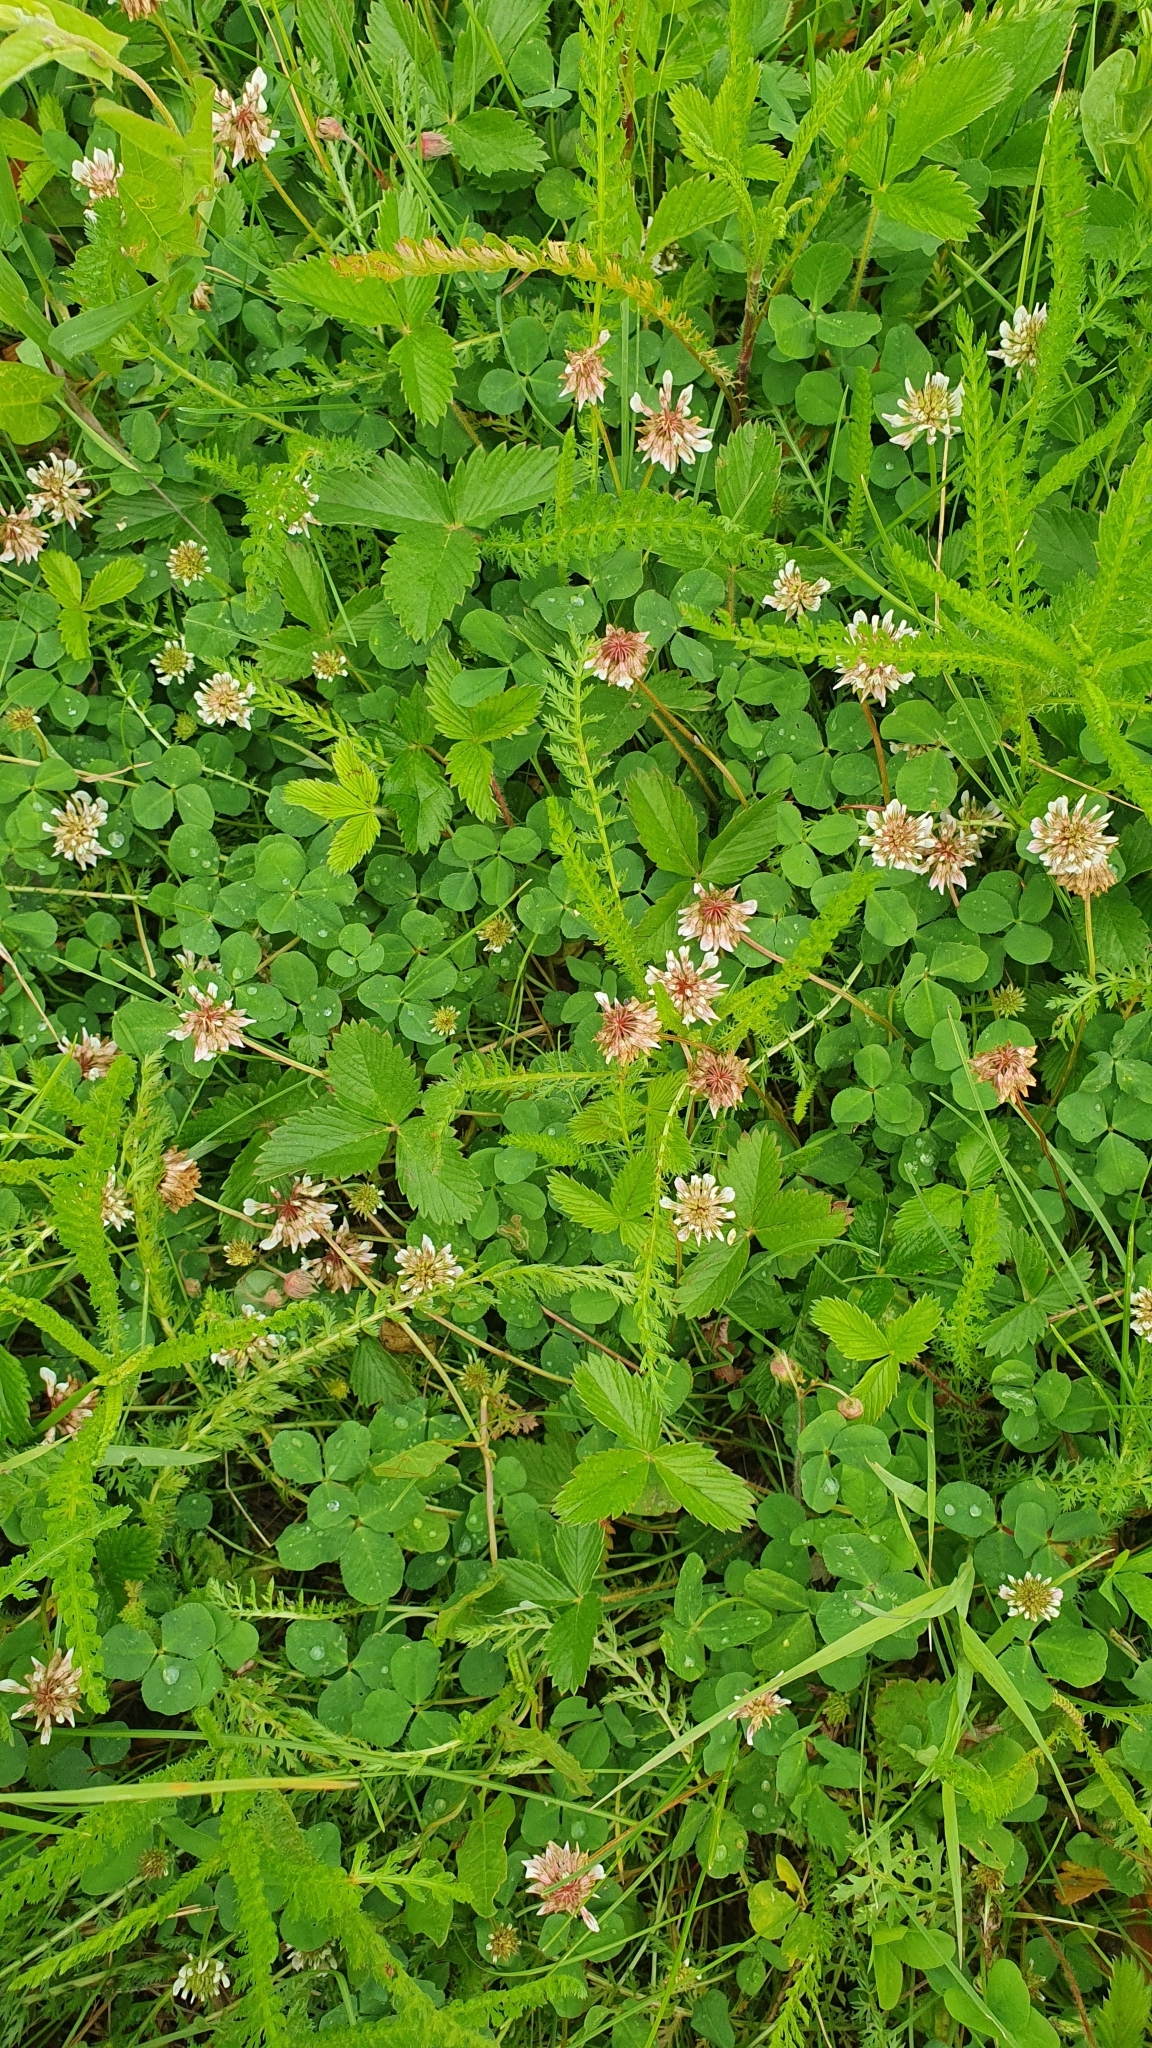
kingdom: Plantae
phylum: Tracheophyta
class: Magnoliopsida
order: Fabales
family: Fabaceae
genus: Trifolium
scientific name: Trifolium repens
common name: White clover
